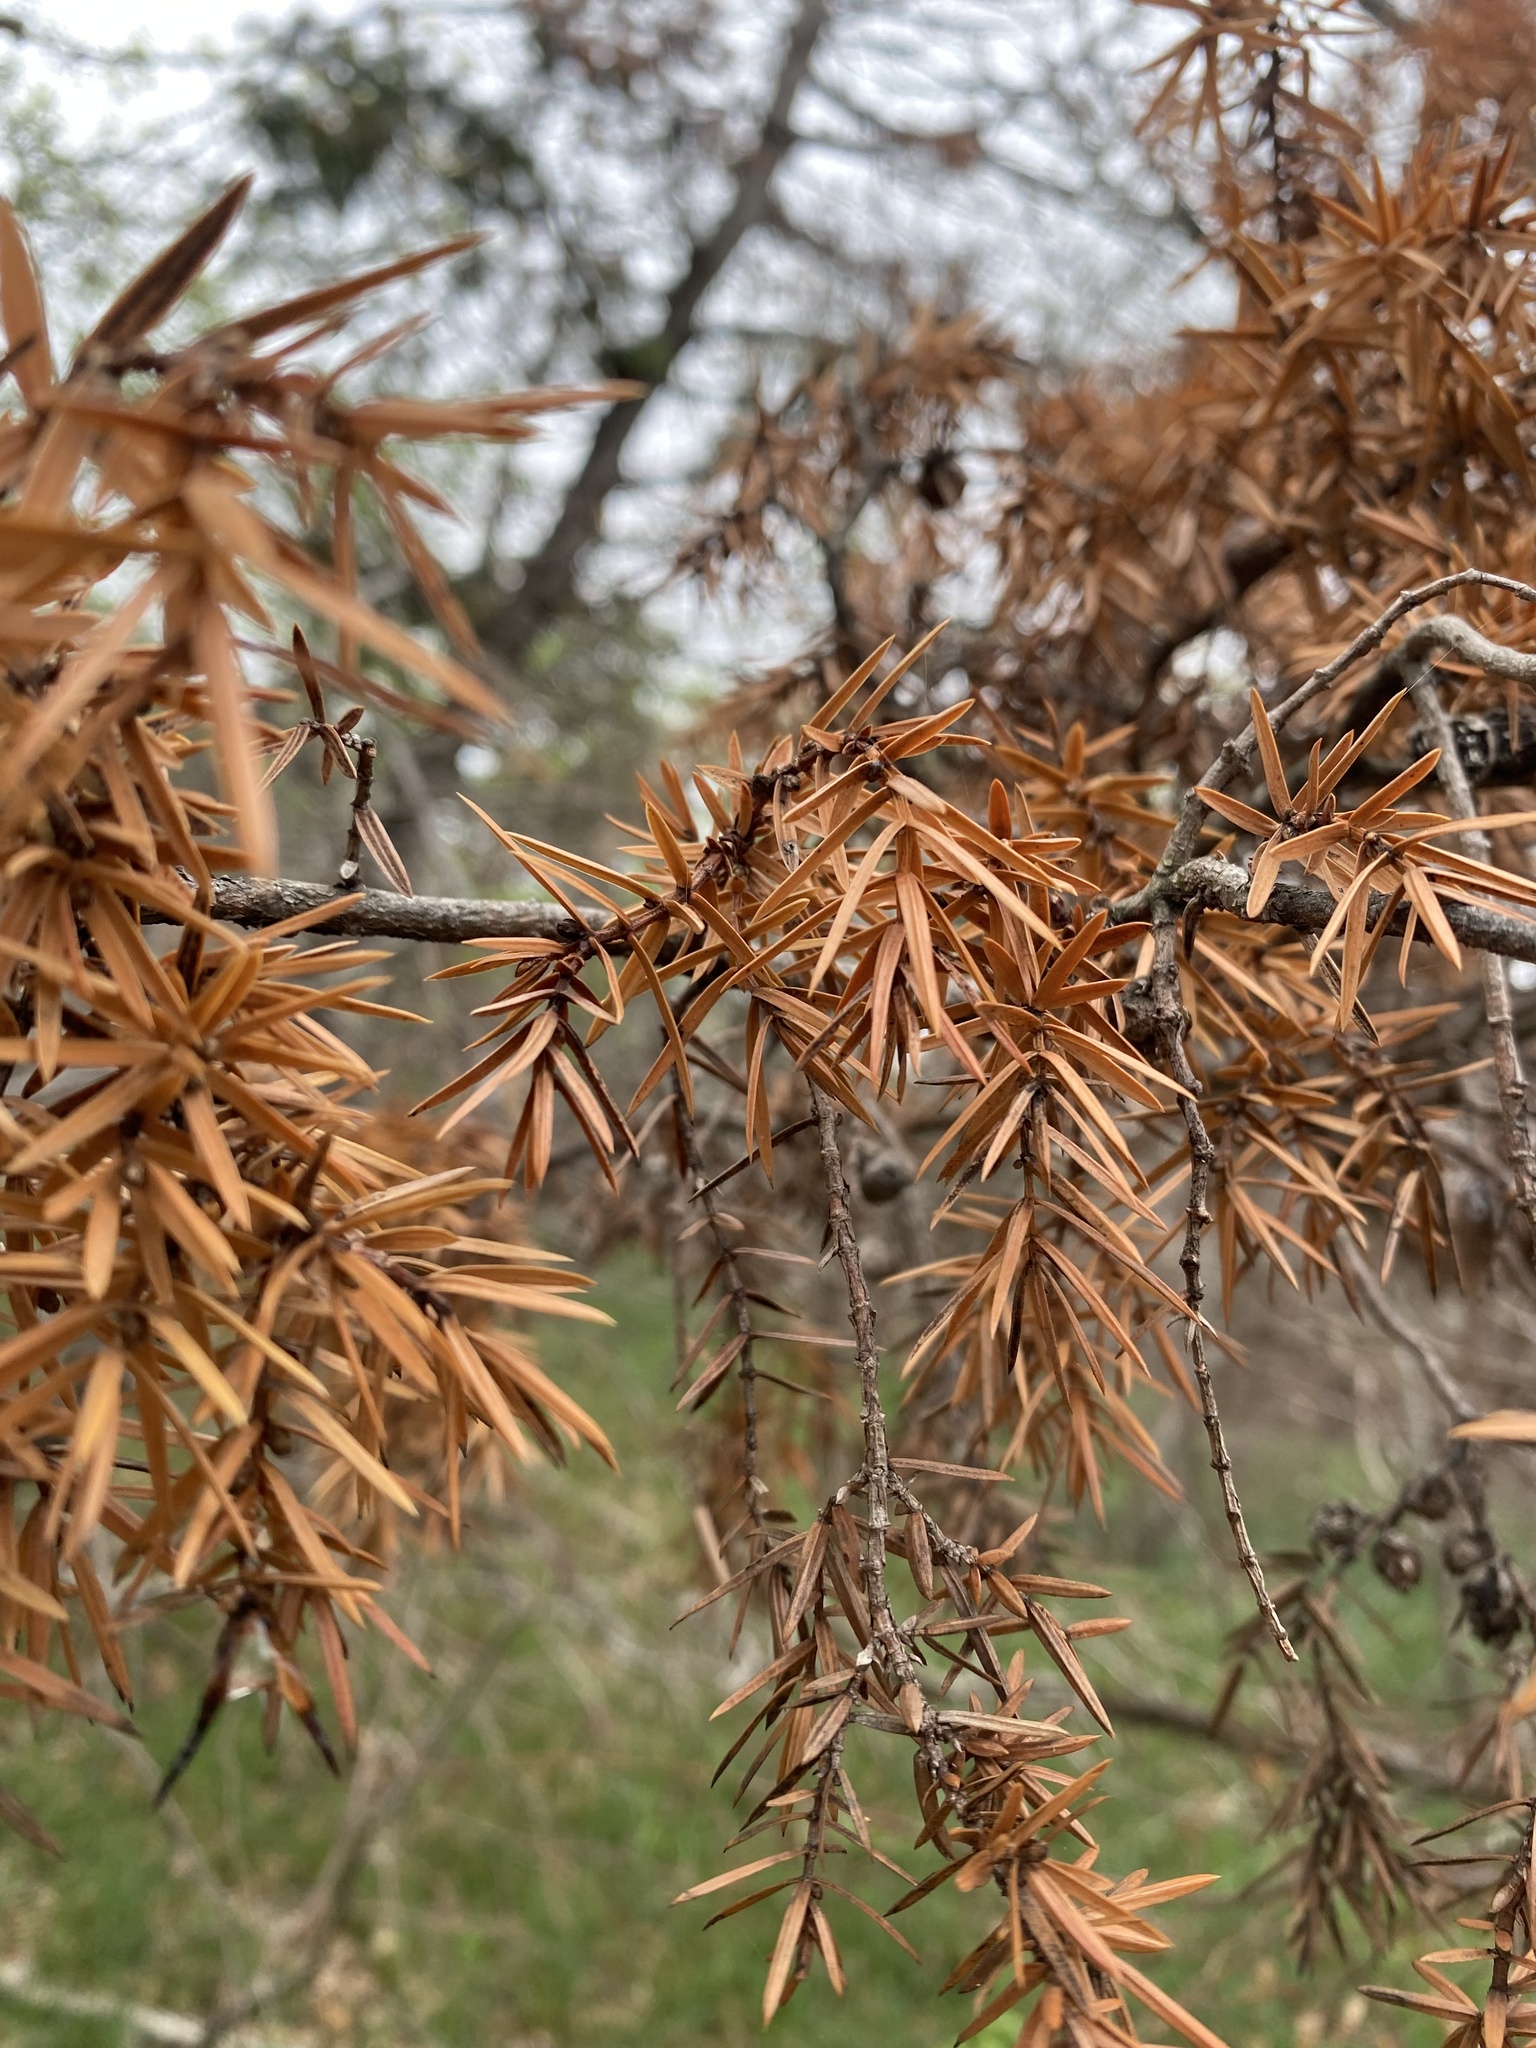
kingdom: Plantae
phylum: Tracheophyta
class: Pinopsida
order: Pinales
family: Cupressaceae
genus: Juniperus
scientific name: Juniperus oxycedrus
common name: Prickly juniper
